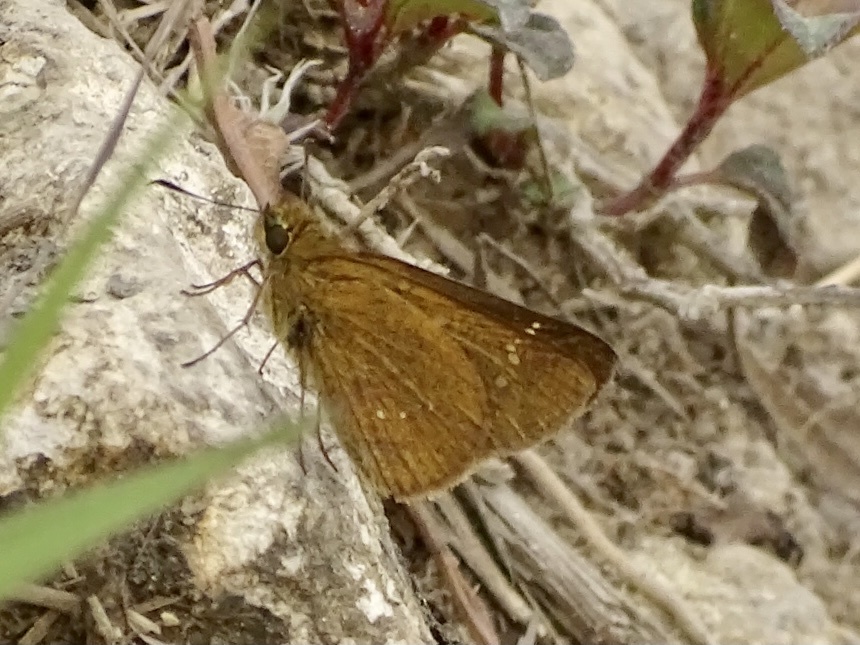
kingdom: Animalia
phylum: Arthropoda
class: Insecta
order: Lepidoptera
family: Hesperiidae
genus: Polytremis
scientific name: Polytremis lubricans
